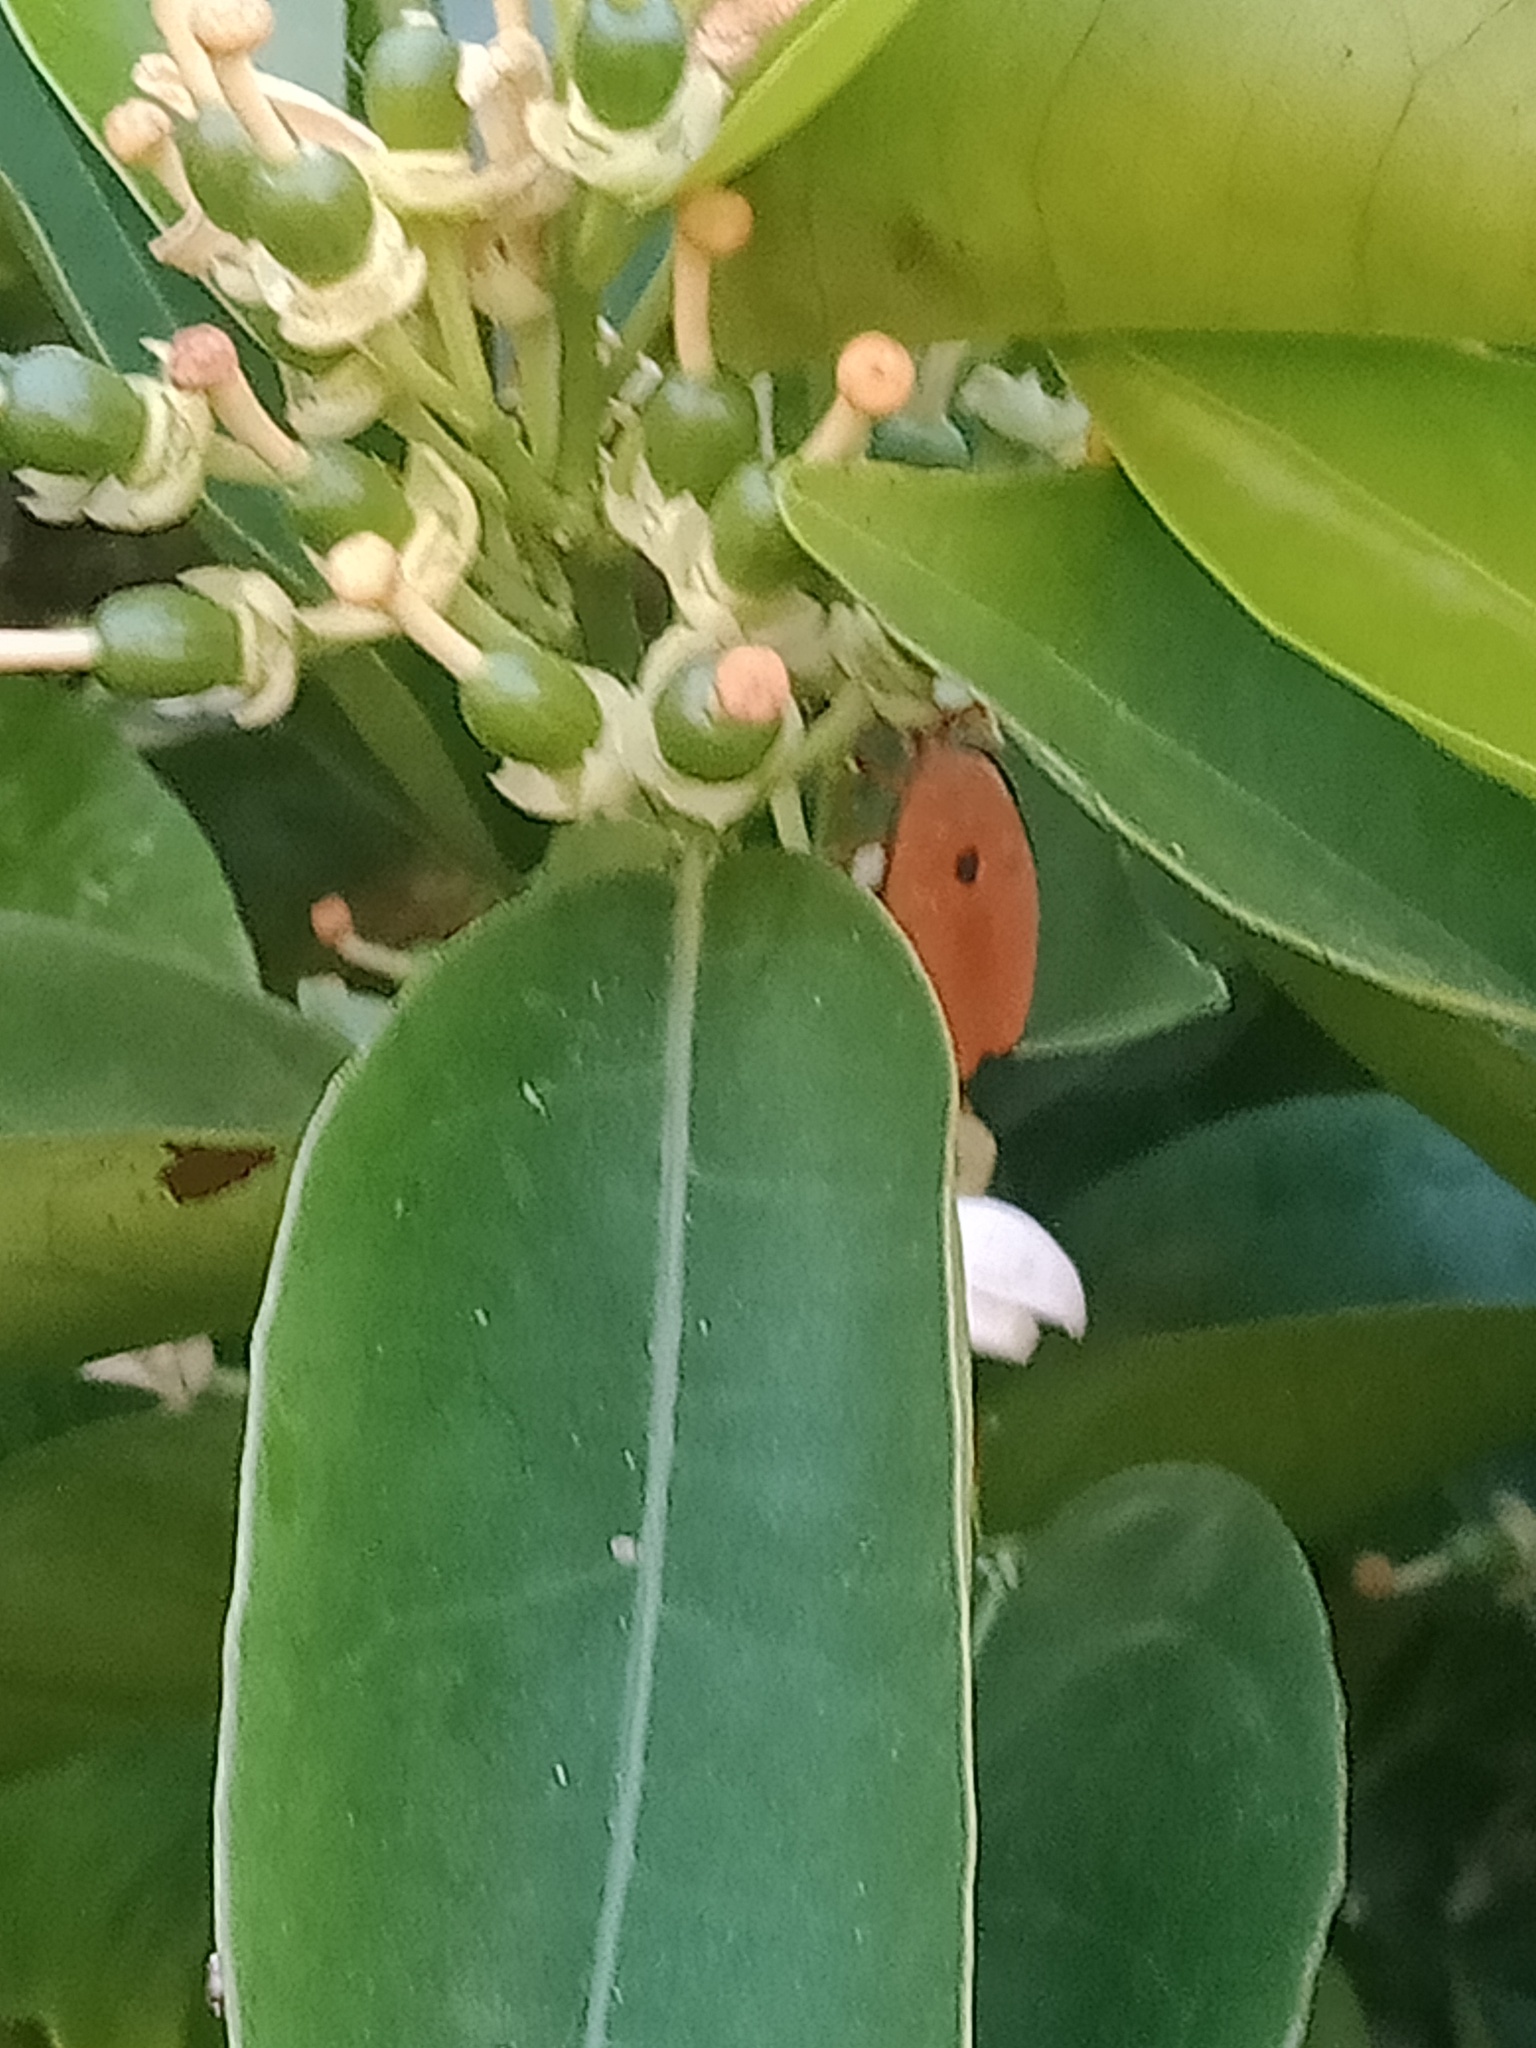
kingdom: Animalia
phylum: Arthropoda
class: Insecta
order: Hemiptera
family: Tessaratomidae
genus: Musgraveia
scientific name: Musgraveia sulciventris
